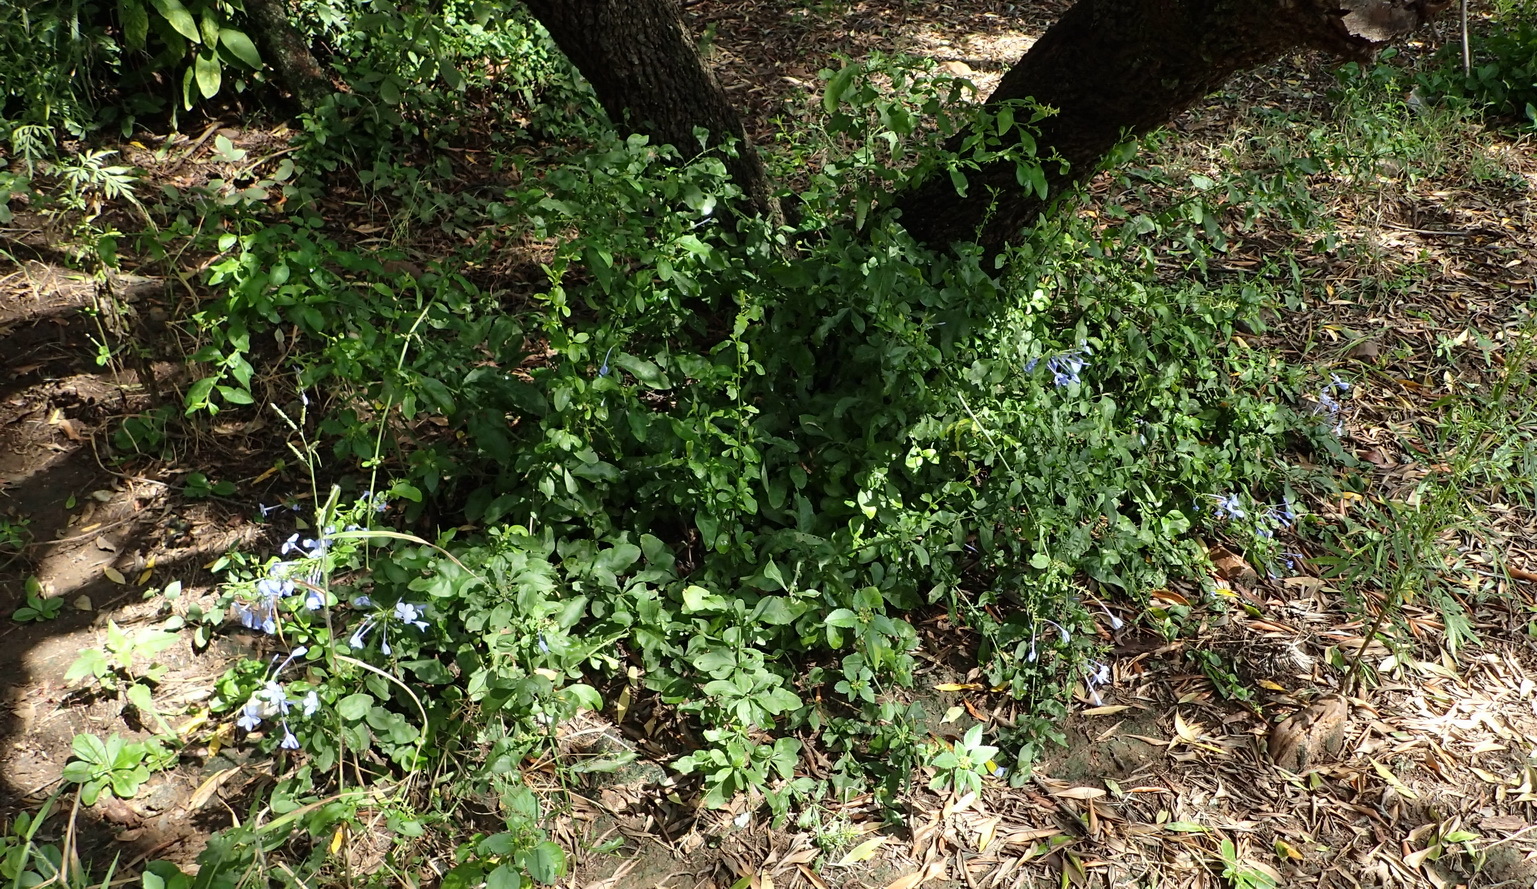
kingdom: Plantae
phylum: Tracheophyta
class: Magnoliopsida
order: Caryophyllales
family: Plumbaginaceae
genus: Plumbago
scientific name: Plumbago auriculata
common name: Cape leadwort
